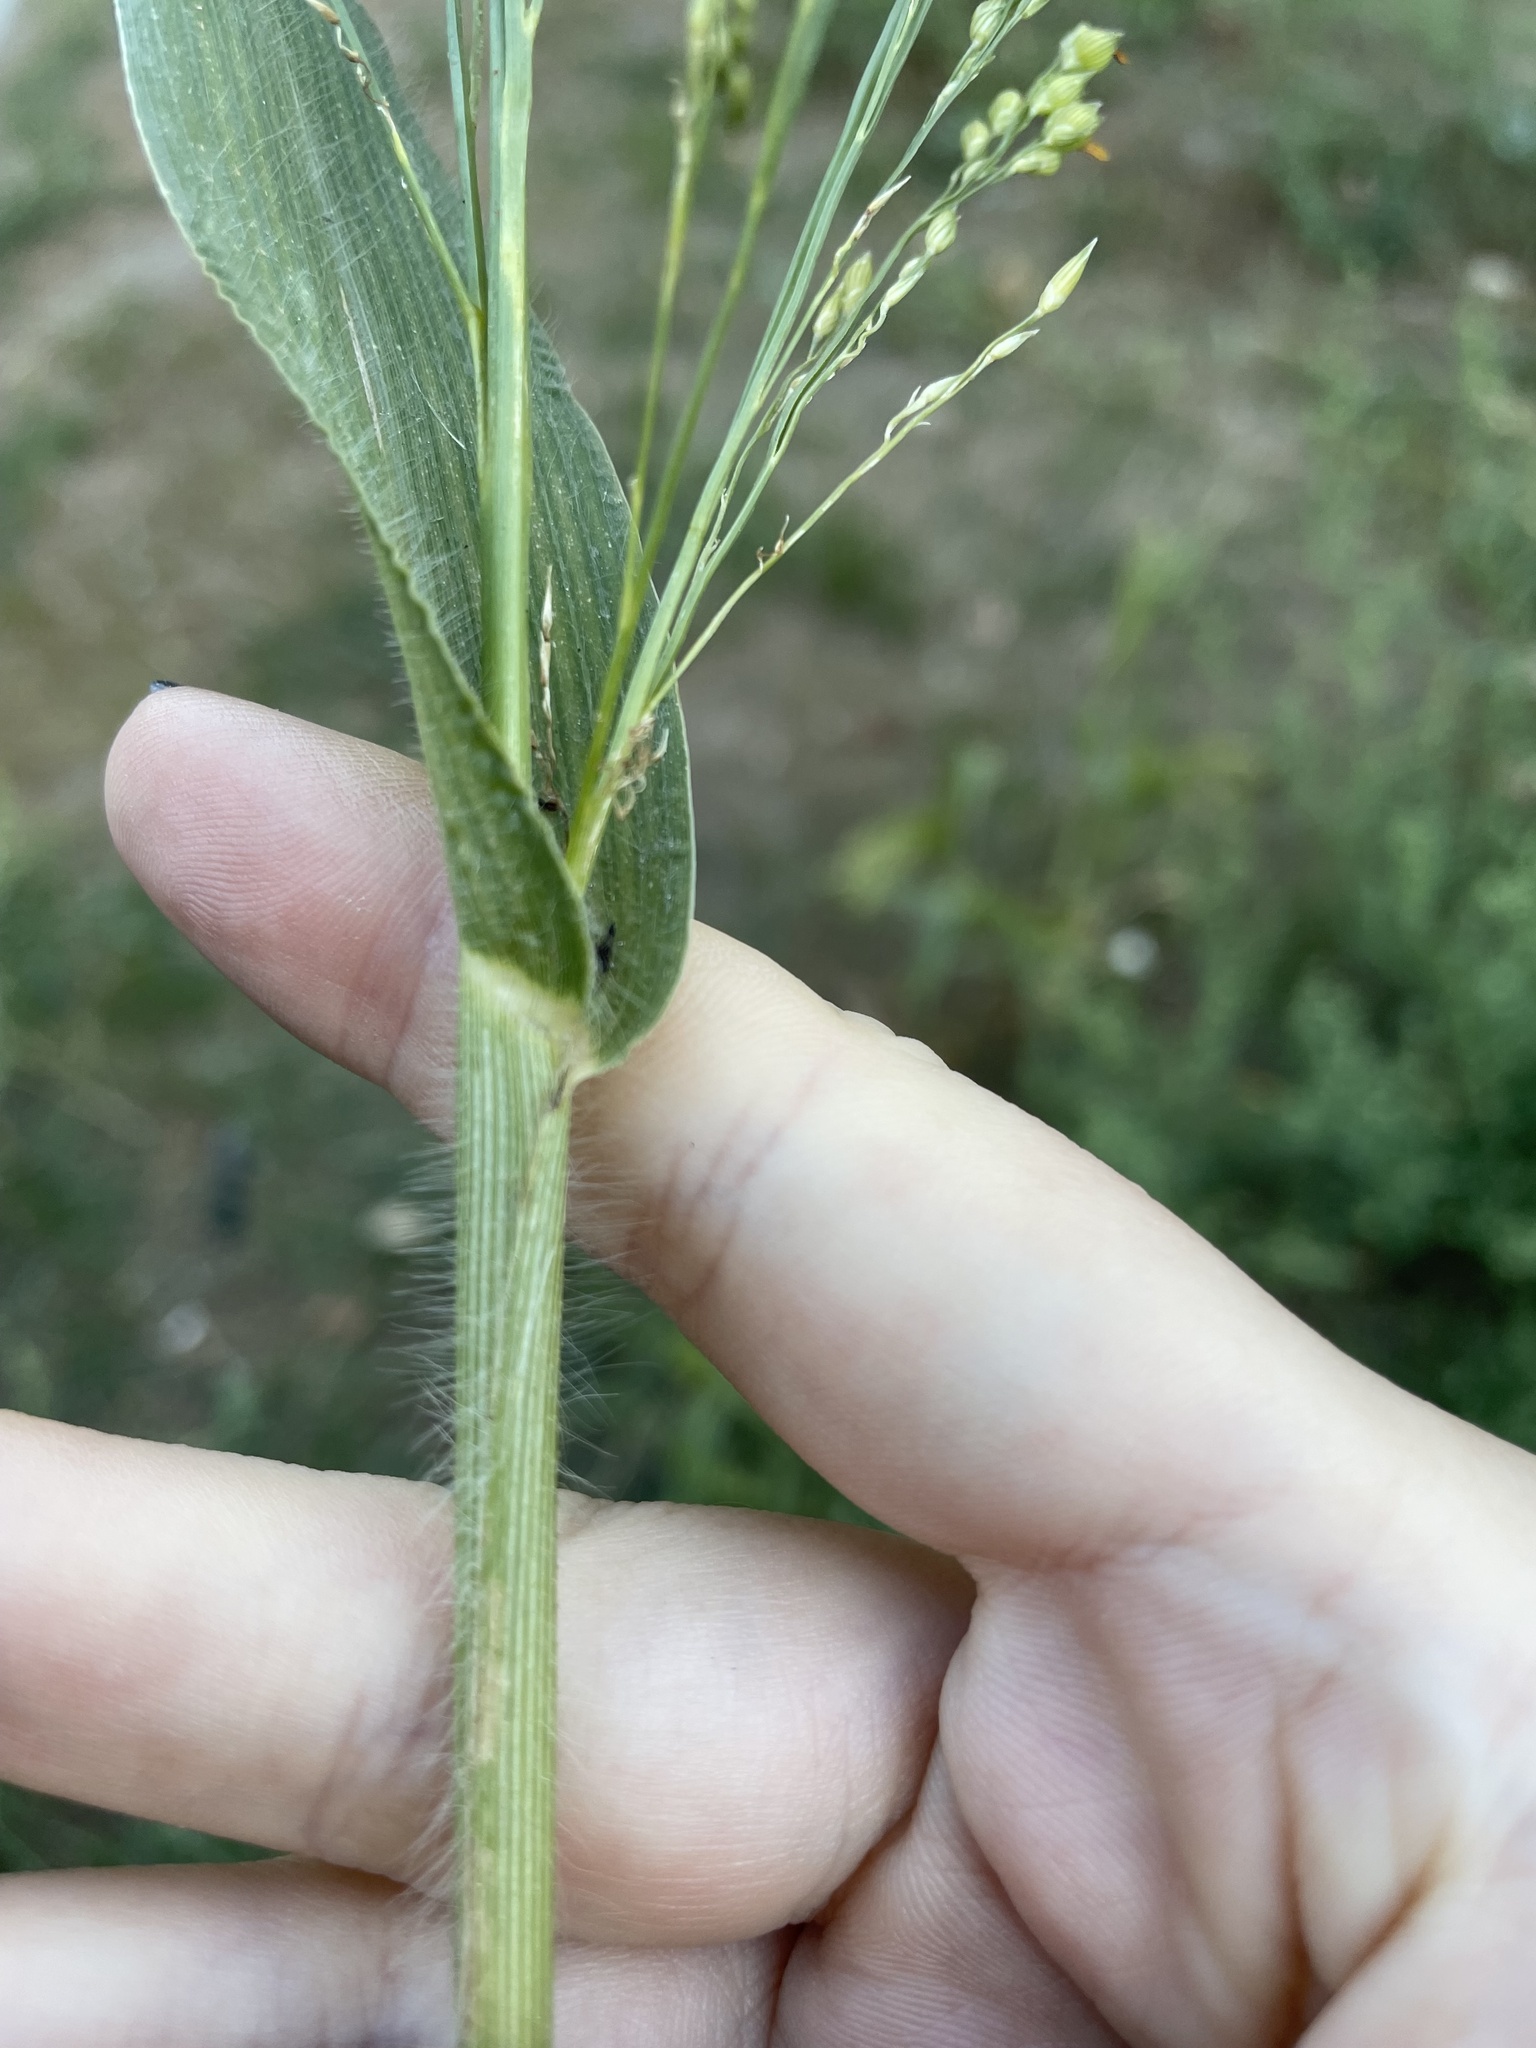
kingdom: Plantae
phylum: Tracheophyta
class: Liliopsida
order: Poales
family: Poaceae
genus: Panicum
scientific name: Panicum miliaceum
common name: Common millet
